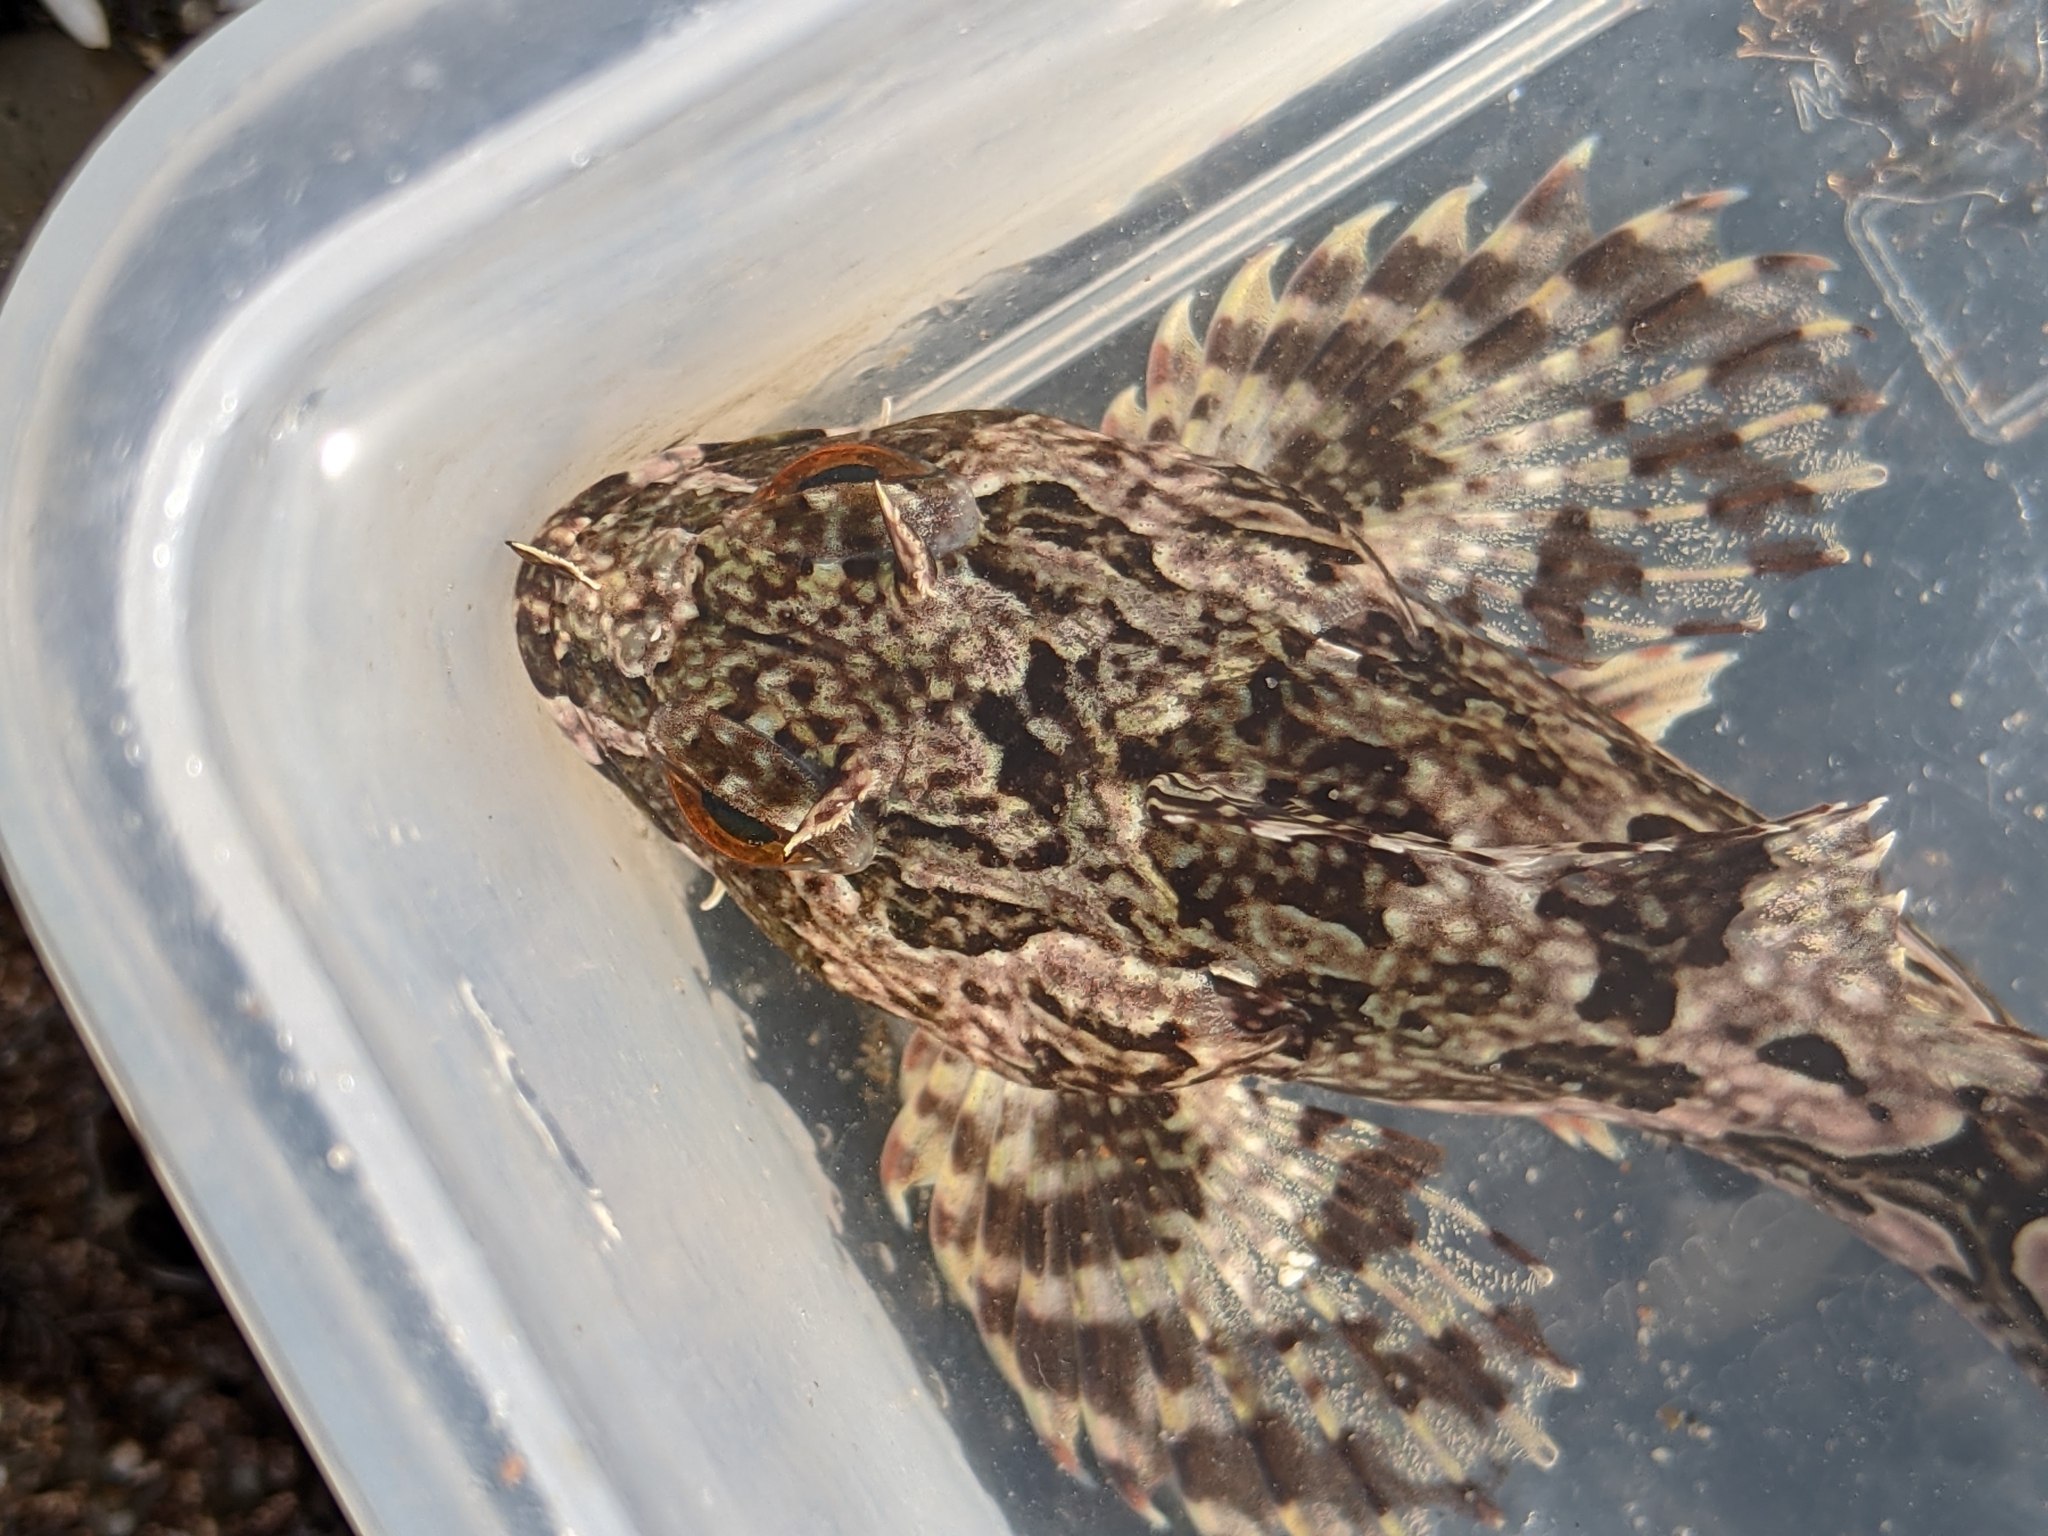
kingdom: Animalia
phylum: Chordata
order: Scorpaeniformes
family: Cottidae
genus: Scorpaenichthys
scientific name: Scorpaenichthys marmoratus
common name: Cabezon
